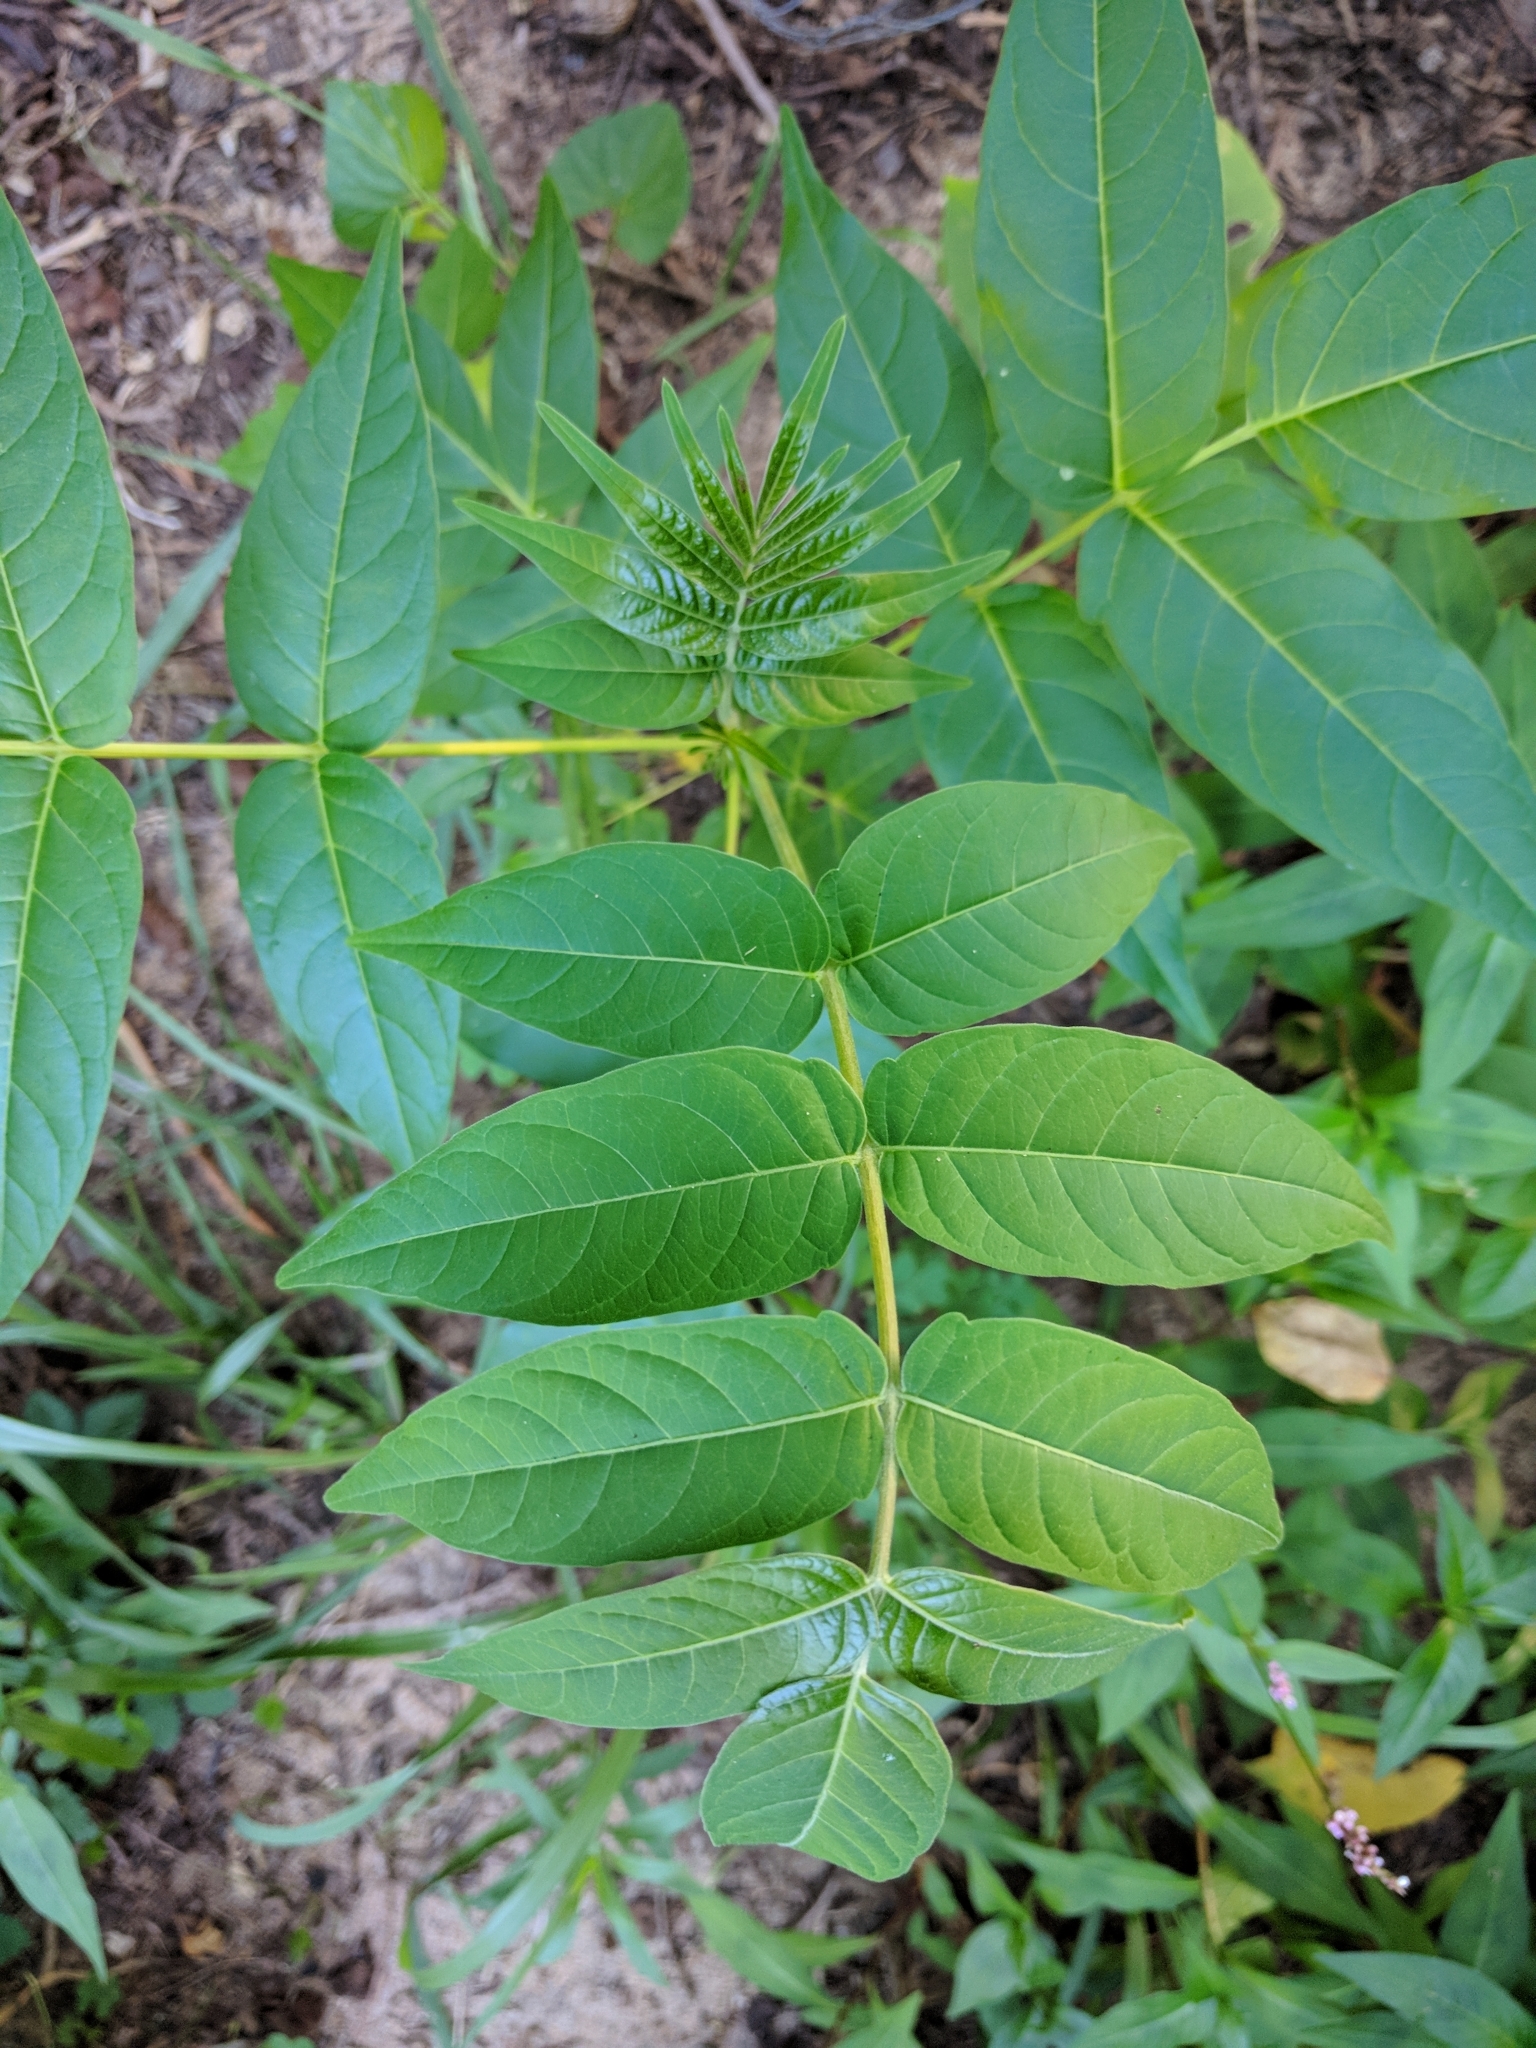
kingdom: Plantae
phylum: Tracheophyta
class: Magnoliopsida
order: Sapindales
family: Simaroubaceae
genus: Ailanthus
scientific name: Ailanthus altissima
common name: Tree-of-heaven
